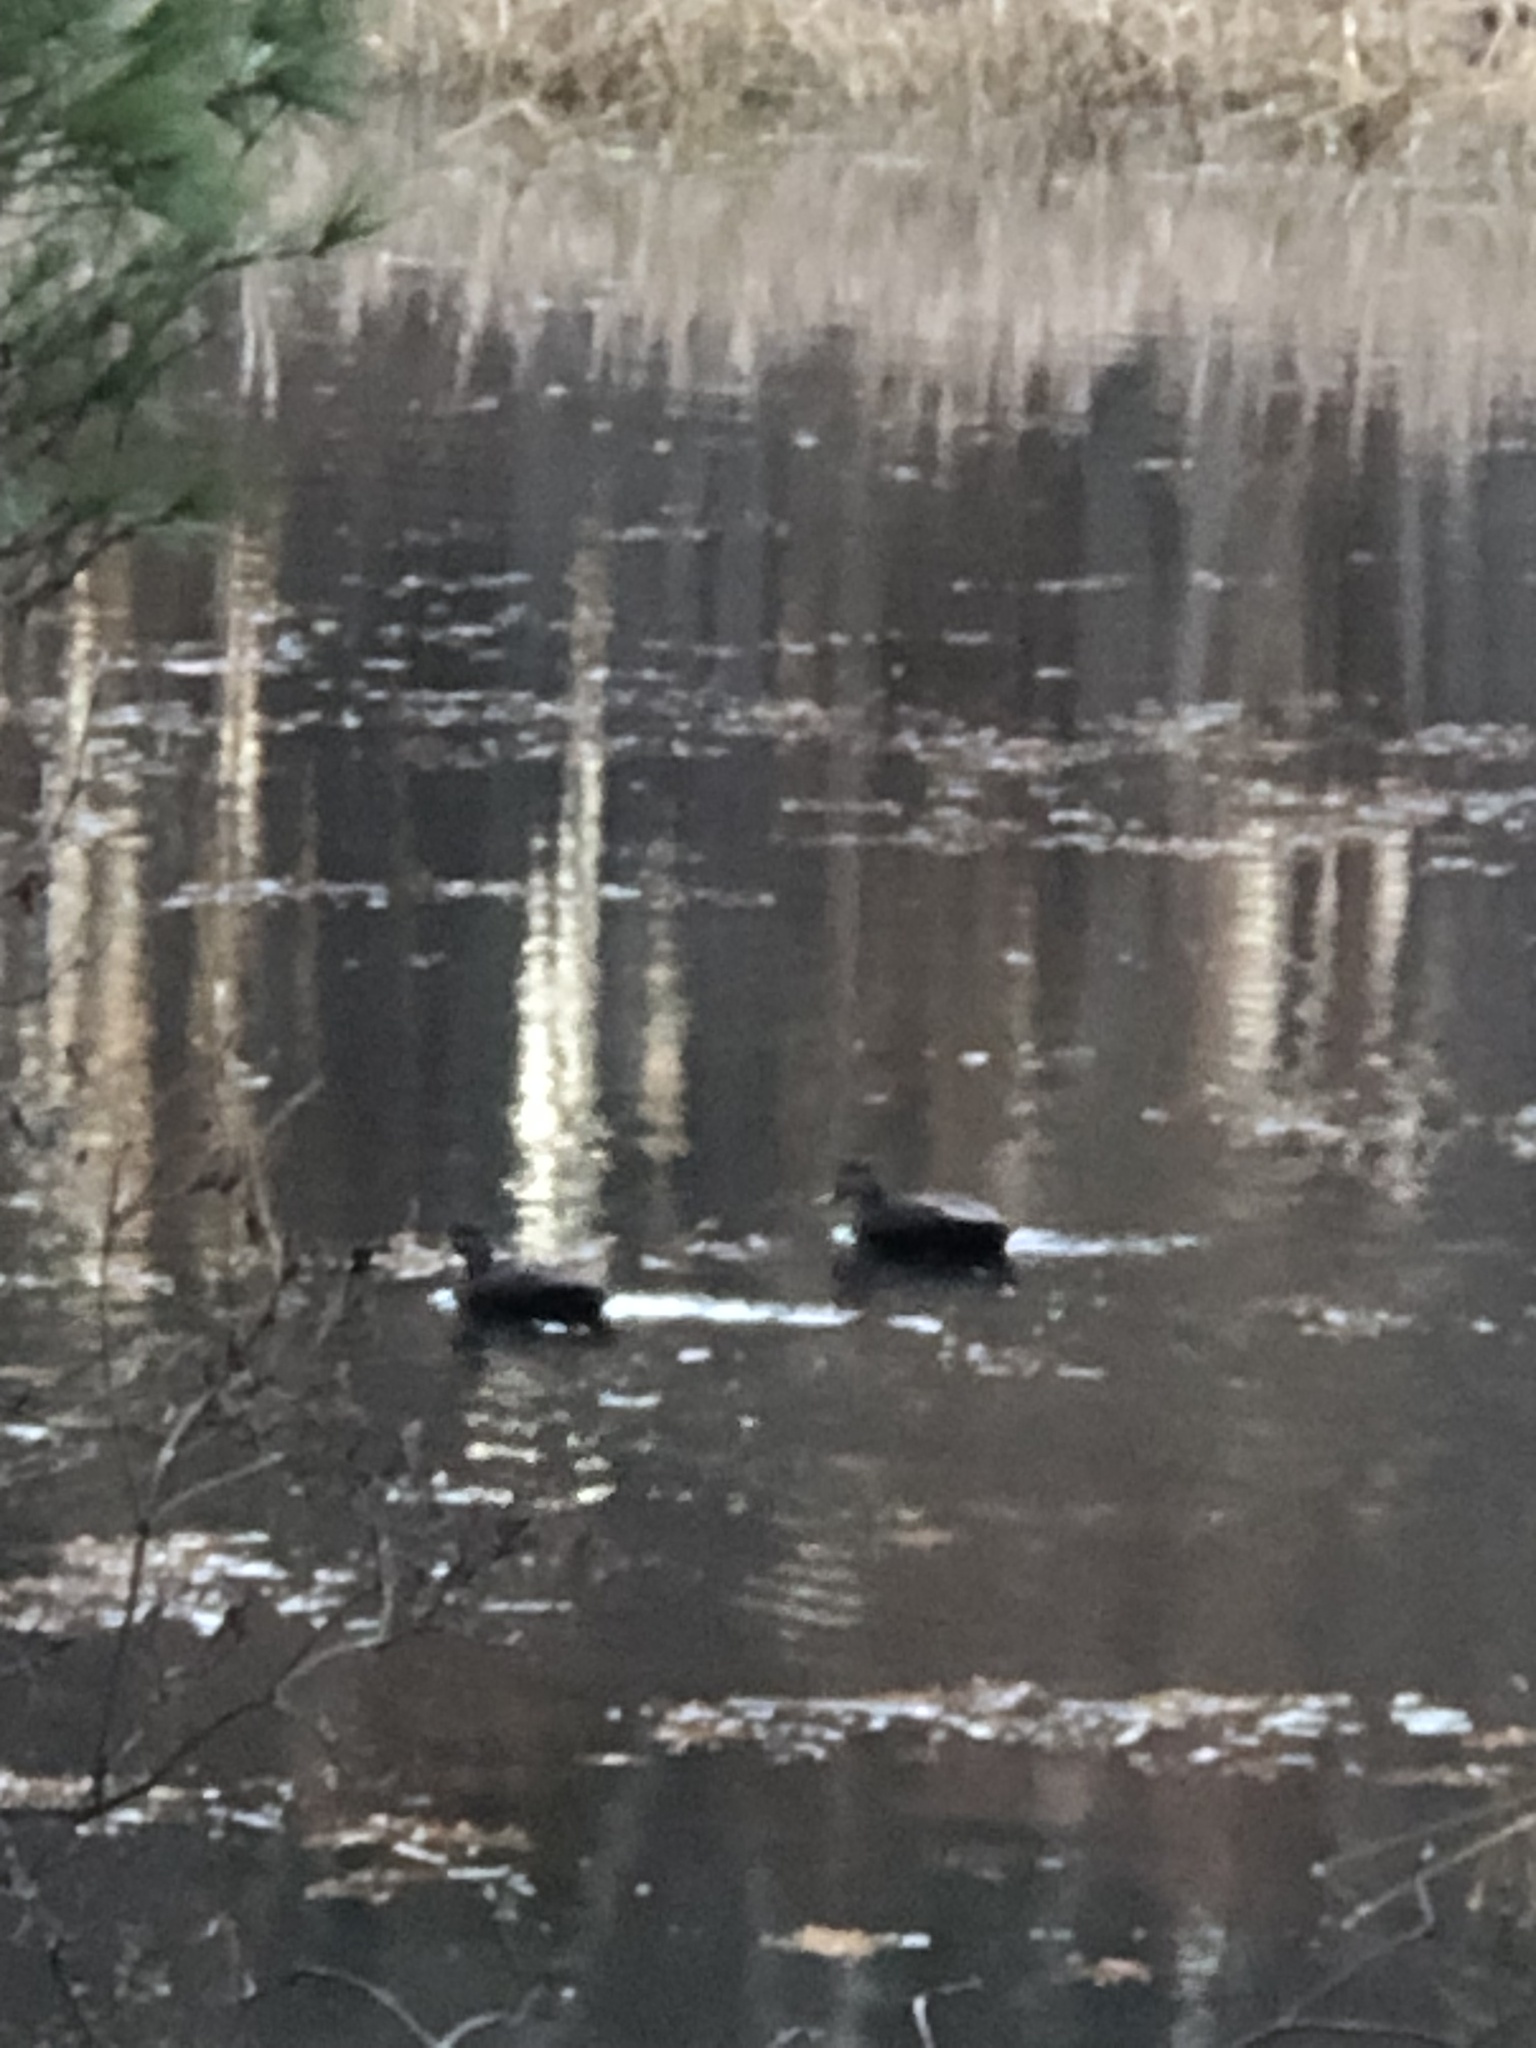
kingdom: Animalia
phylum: Chordata
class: Aves
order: Anseriformes
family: Anatidae
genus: Anas
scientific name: Anas rubripes
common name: American black duck
